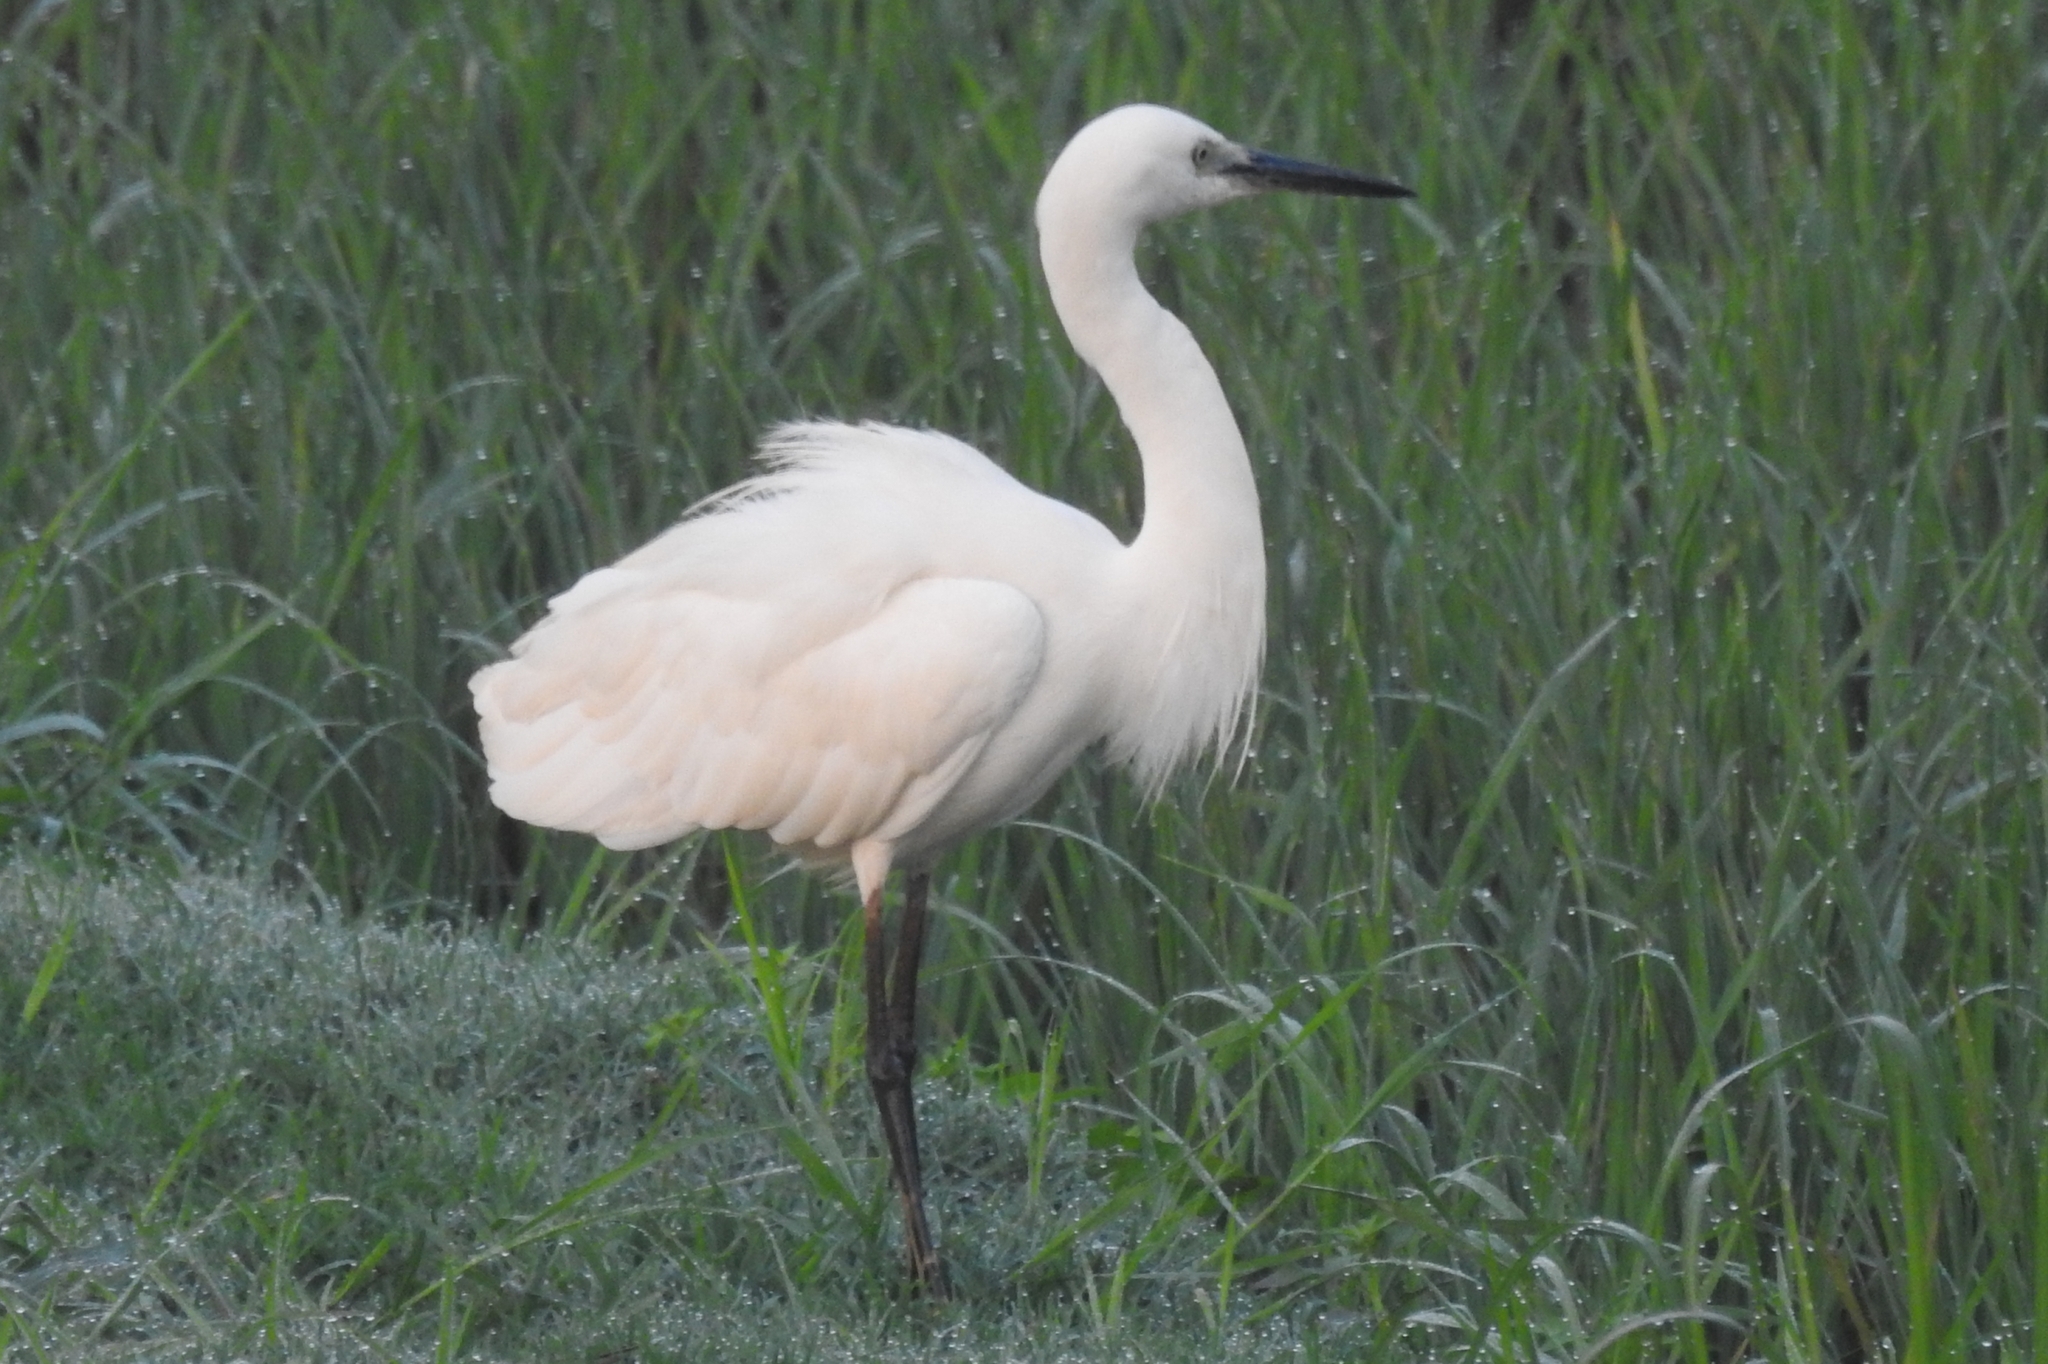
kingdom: Animalia
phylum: Chordata
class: Aves
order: Pelecaniformes
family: Ardeidae
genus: Egretta
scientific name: Egretta garzetta
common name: Little egret
